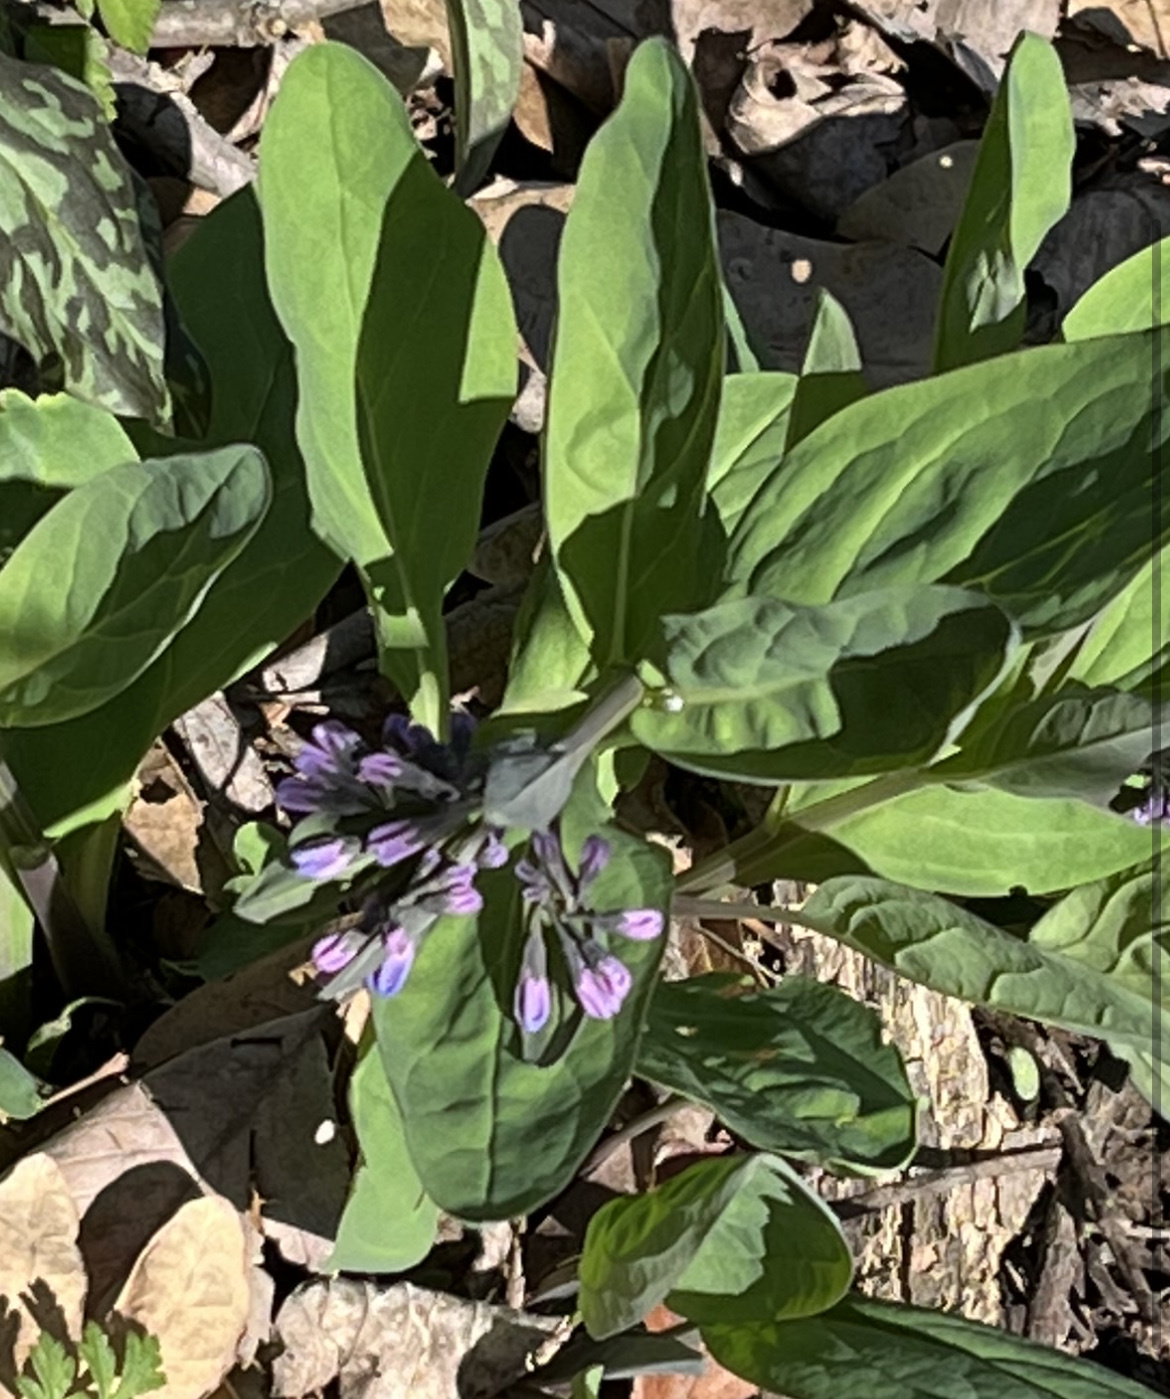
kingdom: Plantae
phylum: Tracheophyta
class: Magnoliopsida
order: Boraginales
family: Boraginaceae
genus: Mertensia
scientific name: Mertensia virginica
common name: Virginia bluebells
